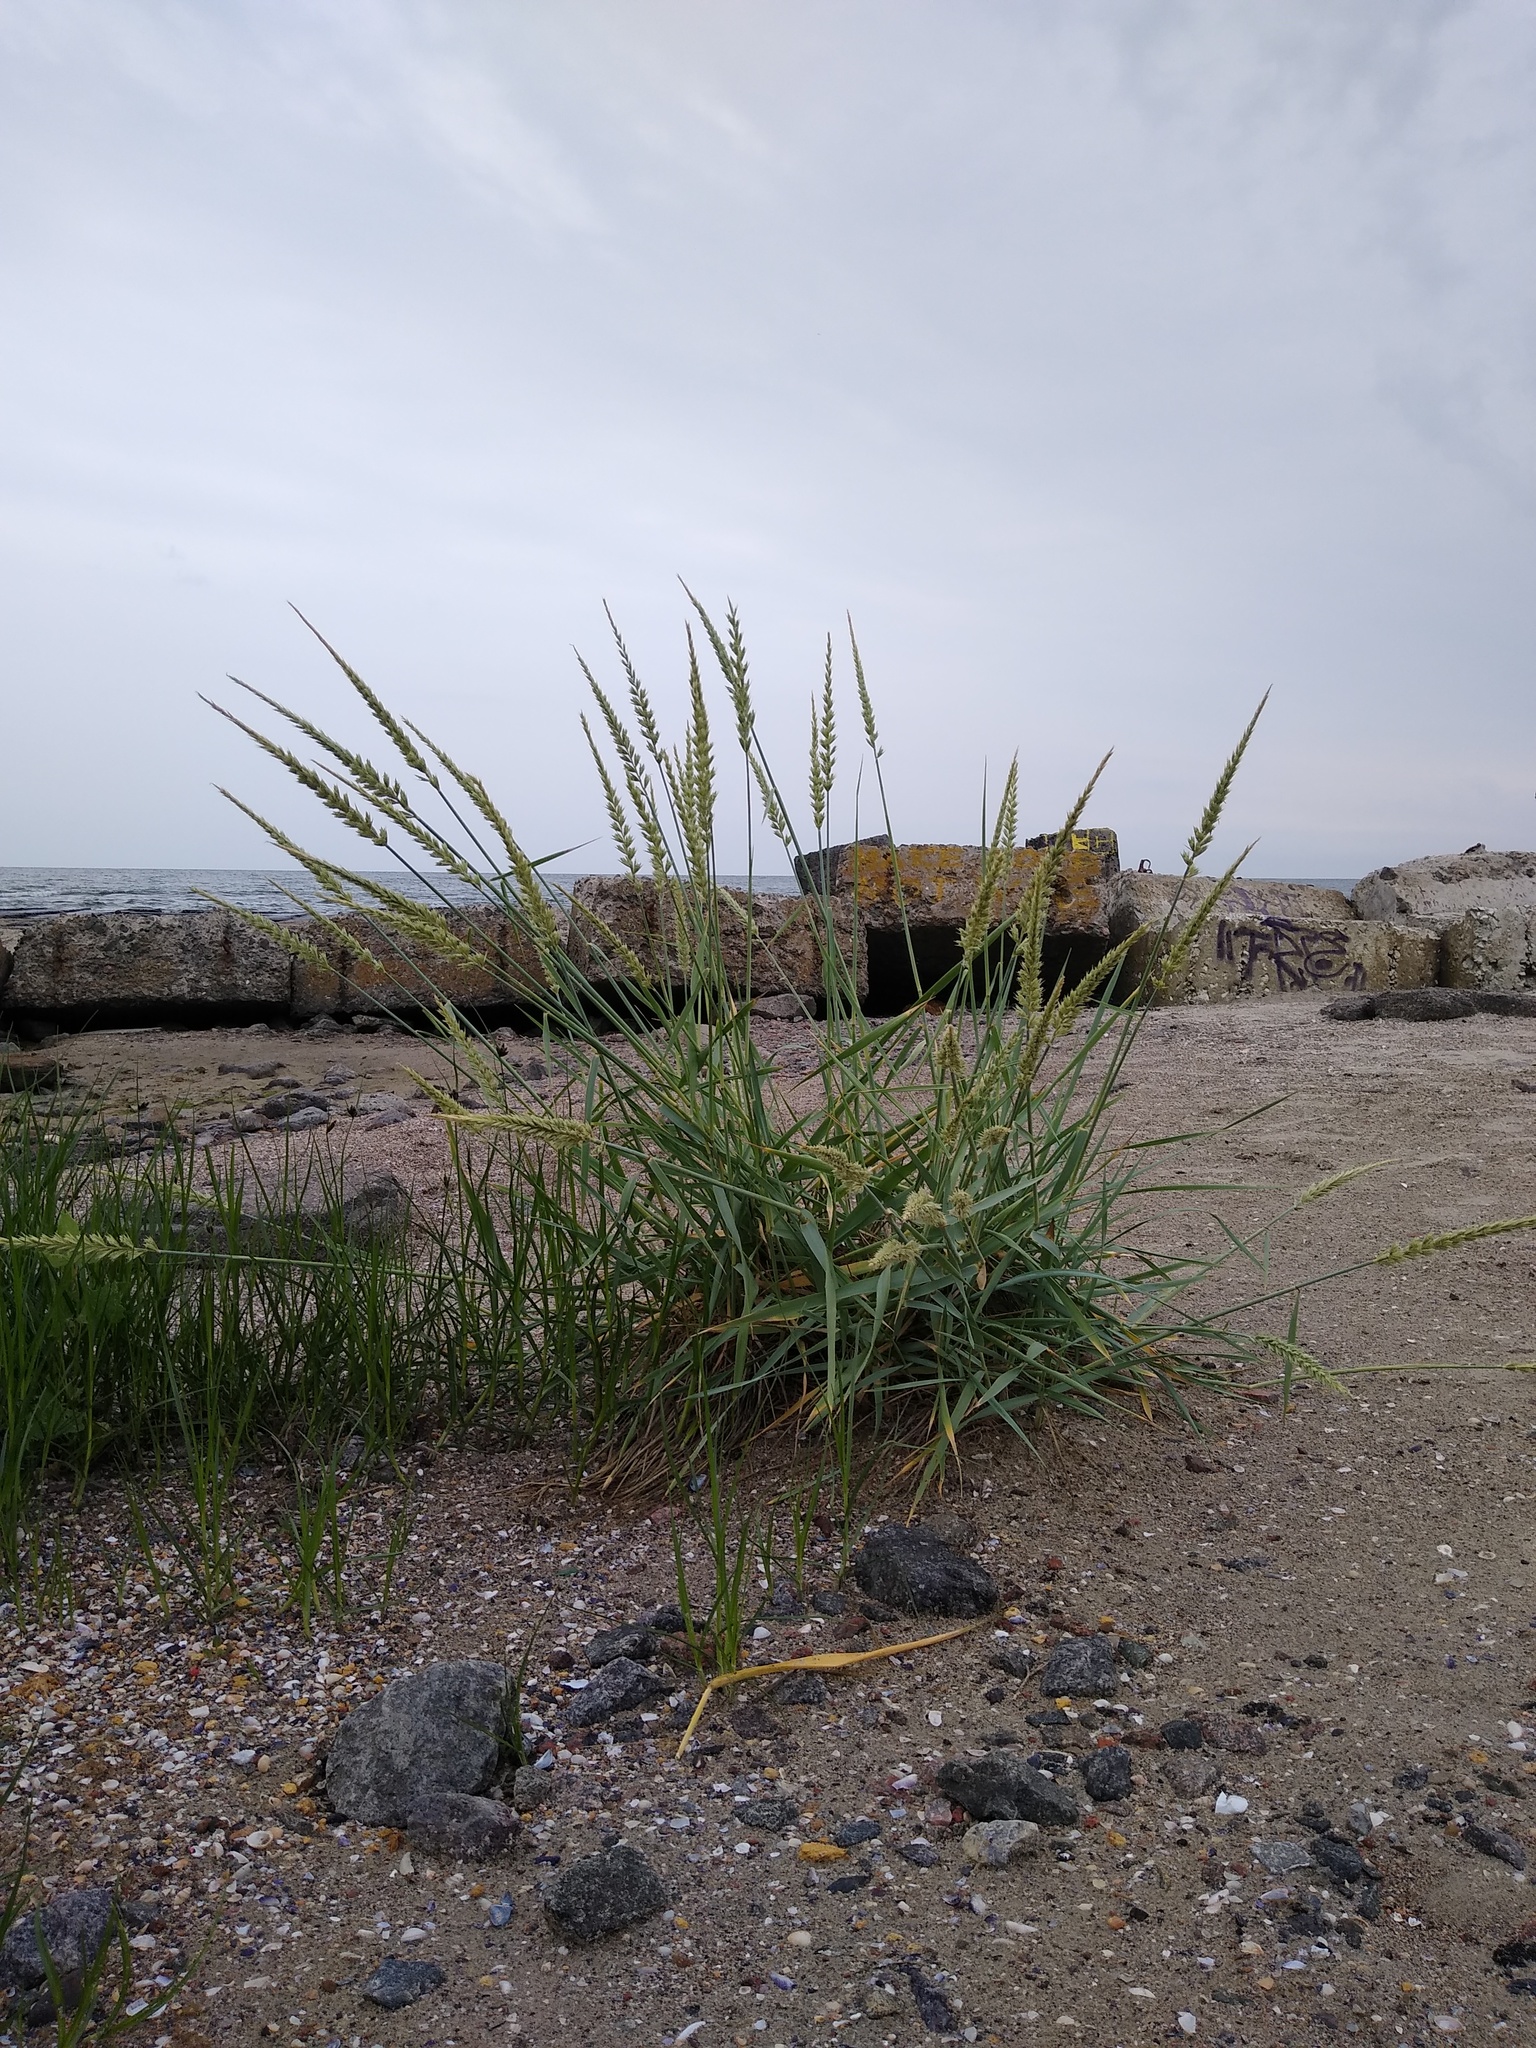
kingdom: Plantae
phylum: Tracheophyta
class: Liliopsida
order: Poales
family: Poaceae
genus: Leymus
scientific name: Leymus racemosus
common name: Mammoth wildrye
